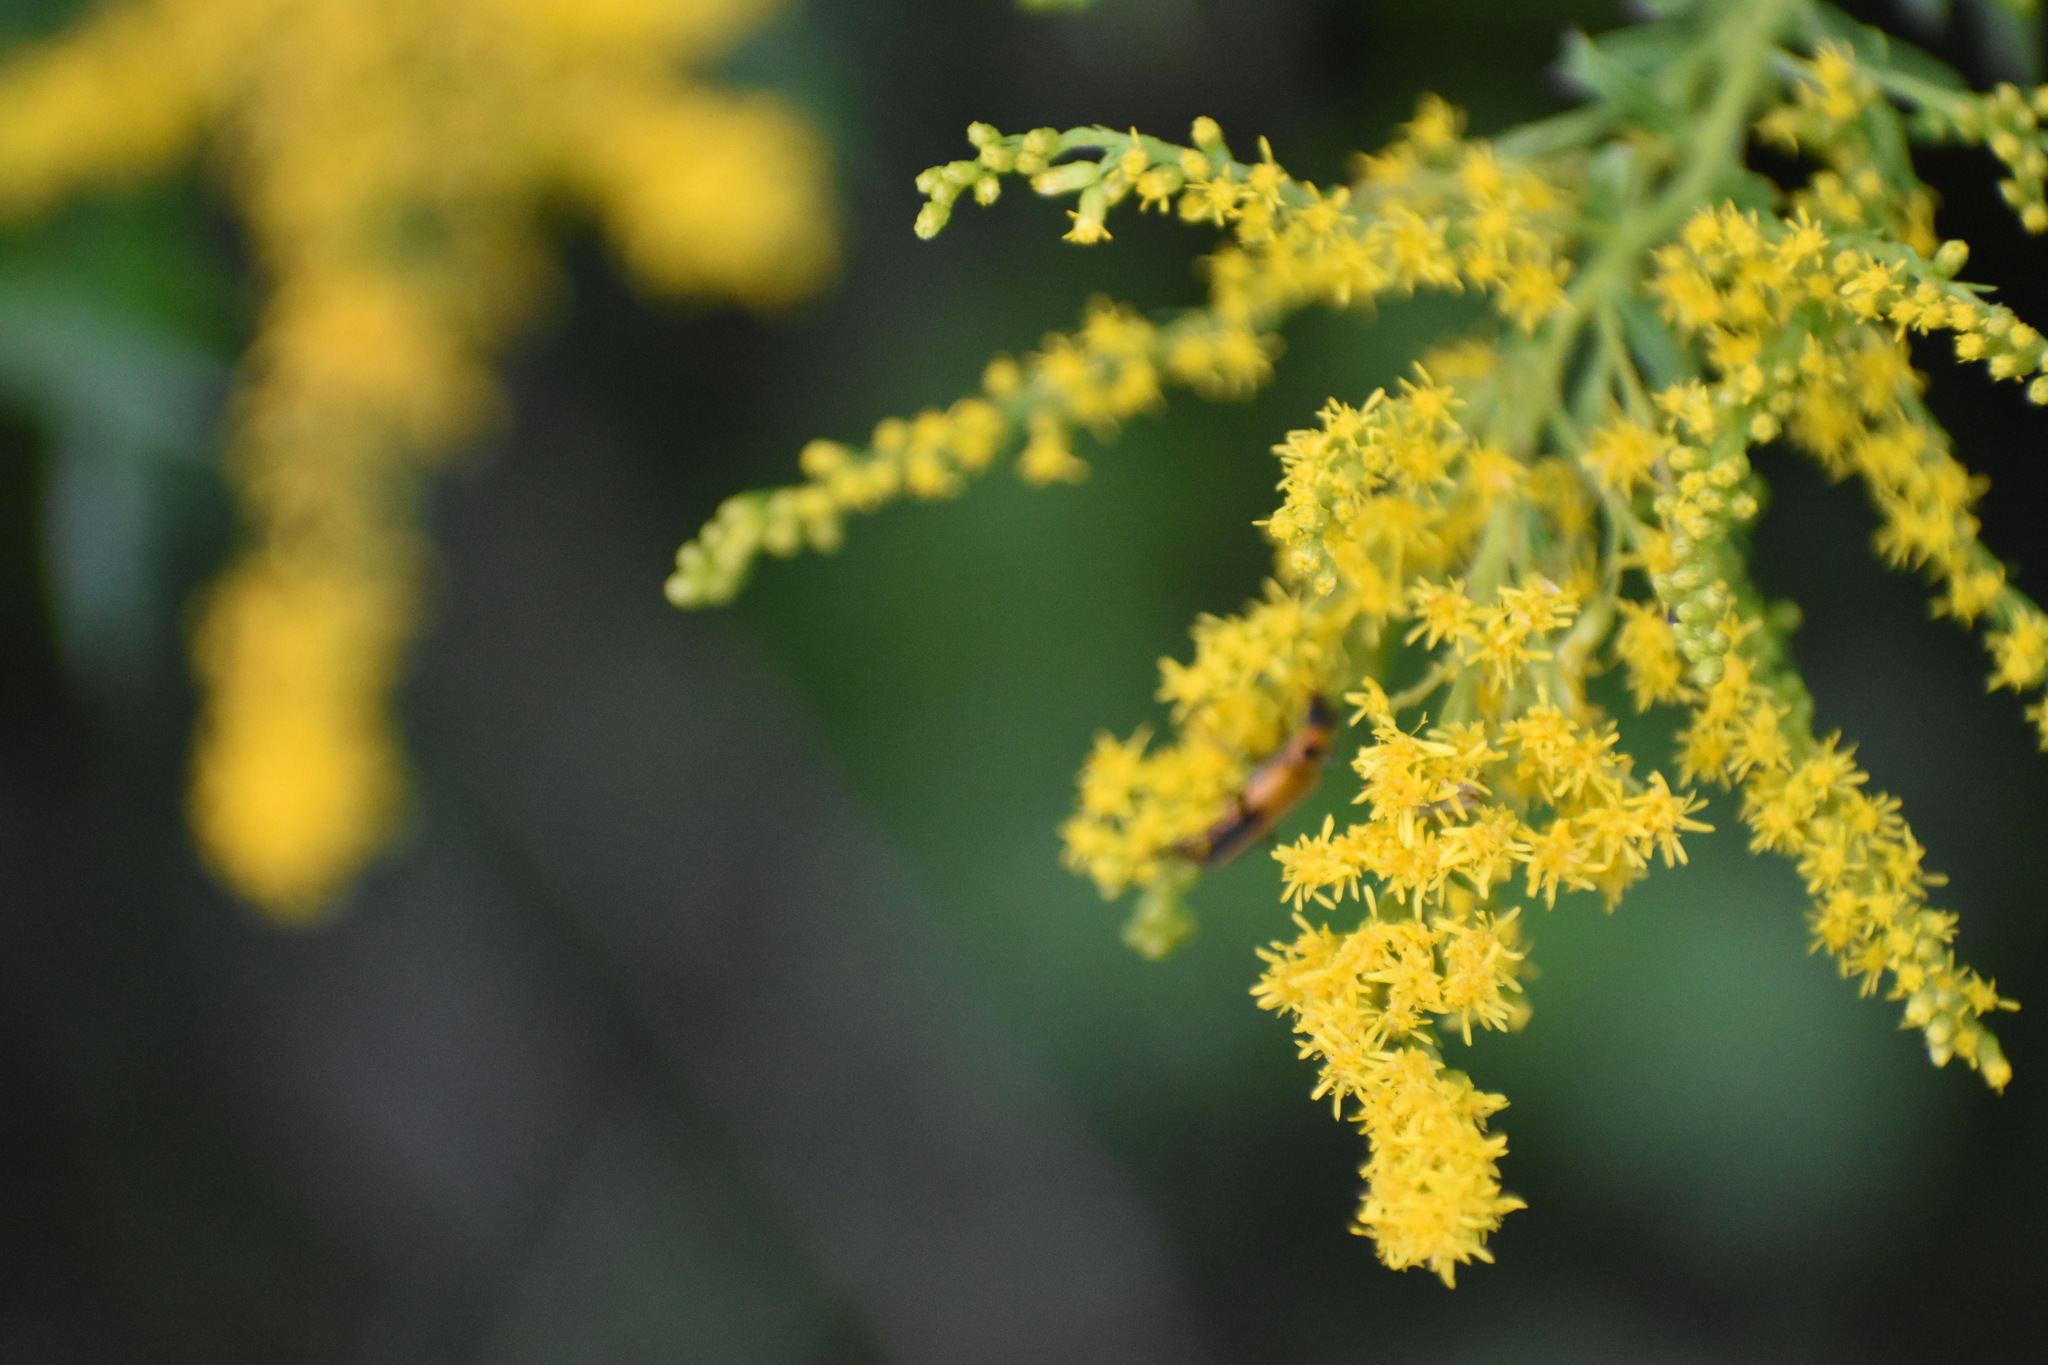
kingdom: Animalia
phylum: Arthropoda
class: Insecta
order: Coleoptera
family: Cantharidae
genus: Chauliognathus
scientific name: Chauliognathus pensylvanicus
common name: Goldenrod soldier beetle
